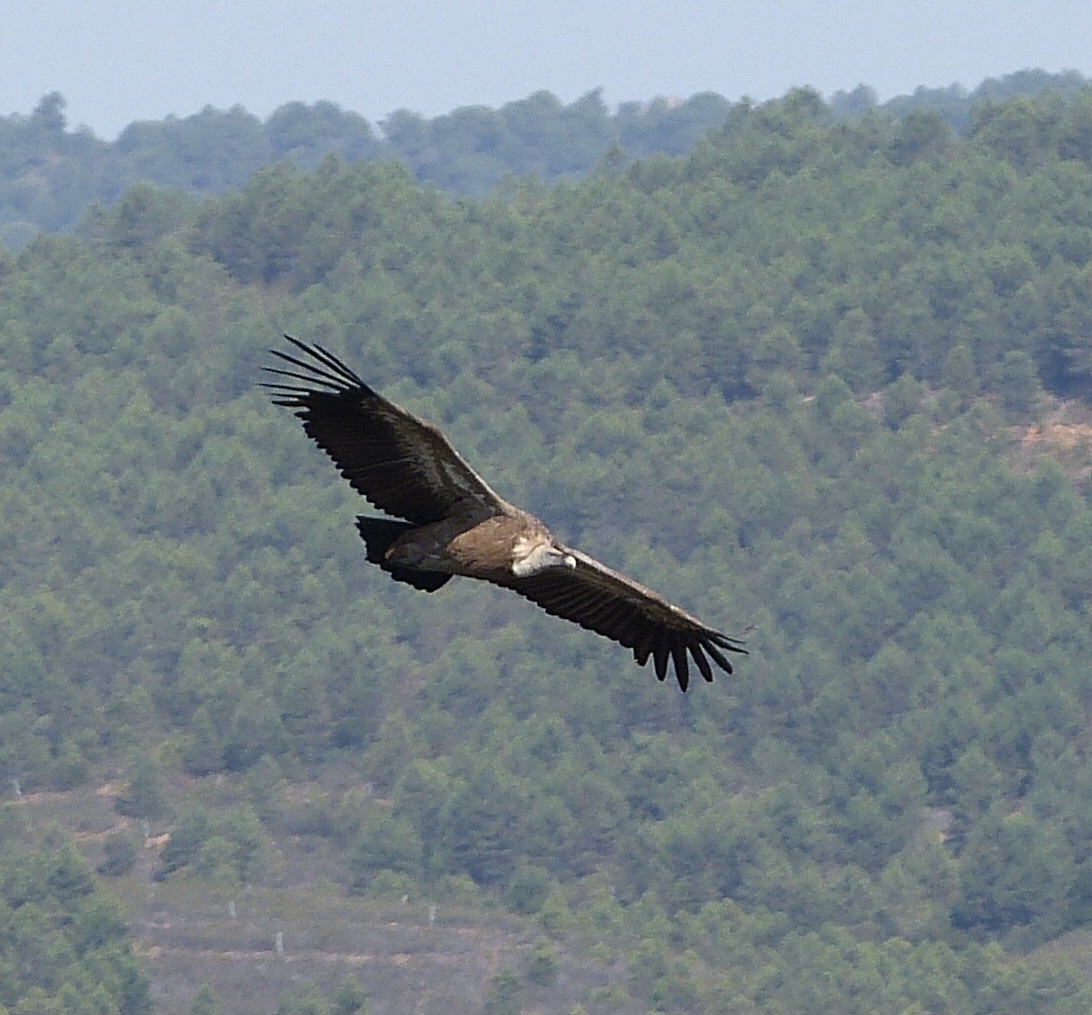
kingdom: Animalia
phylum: Chordata
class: Aves
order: Accipitriformes
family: Accipitridae
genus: Gyps
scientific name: Gyps fulvus
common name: Griffon vulture
